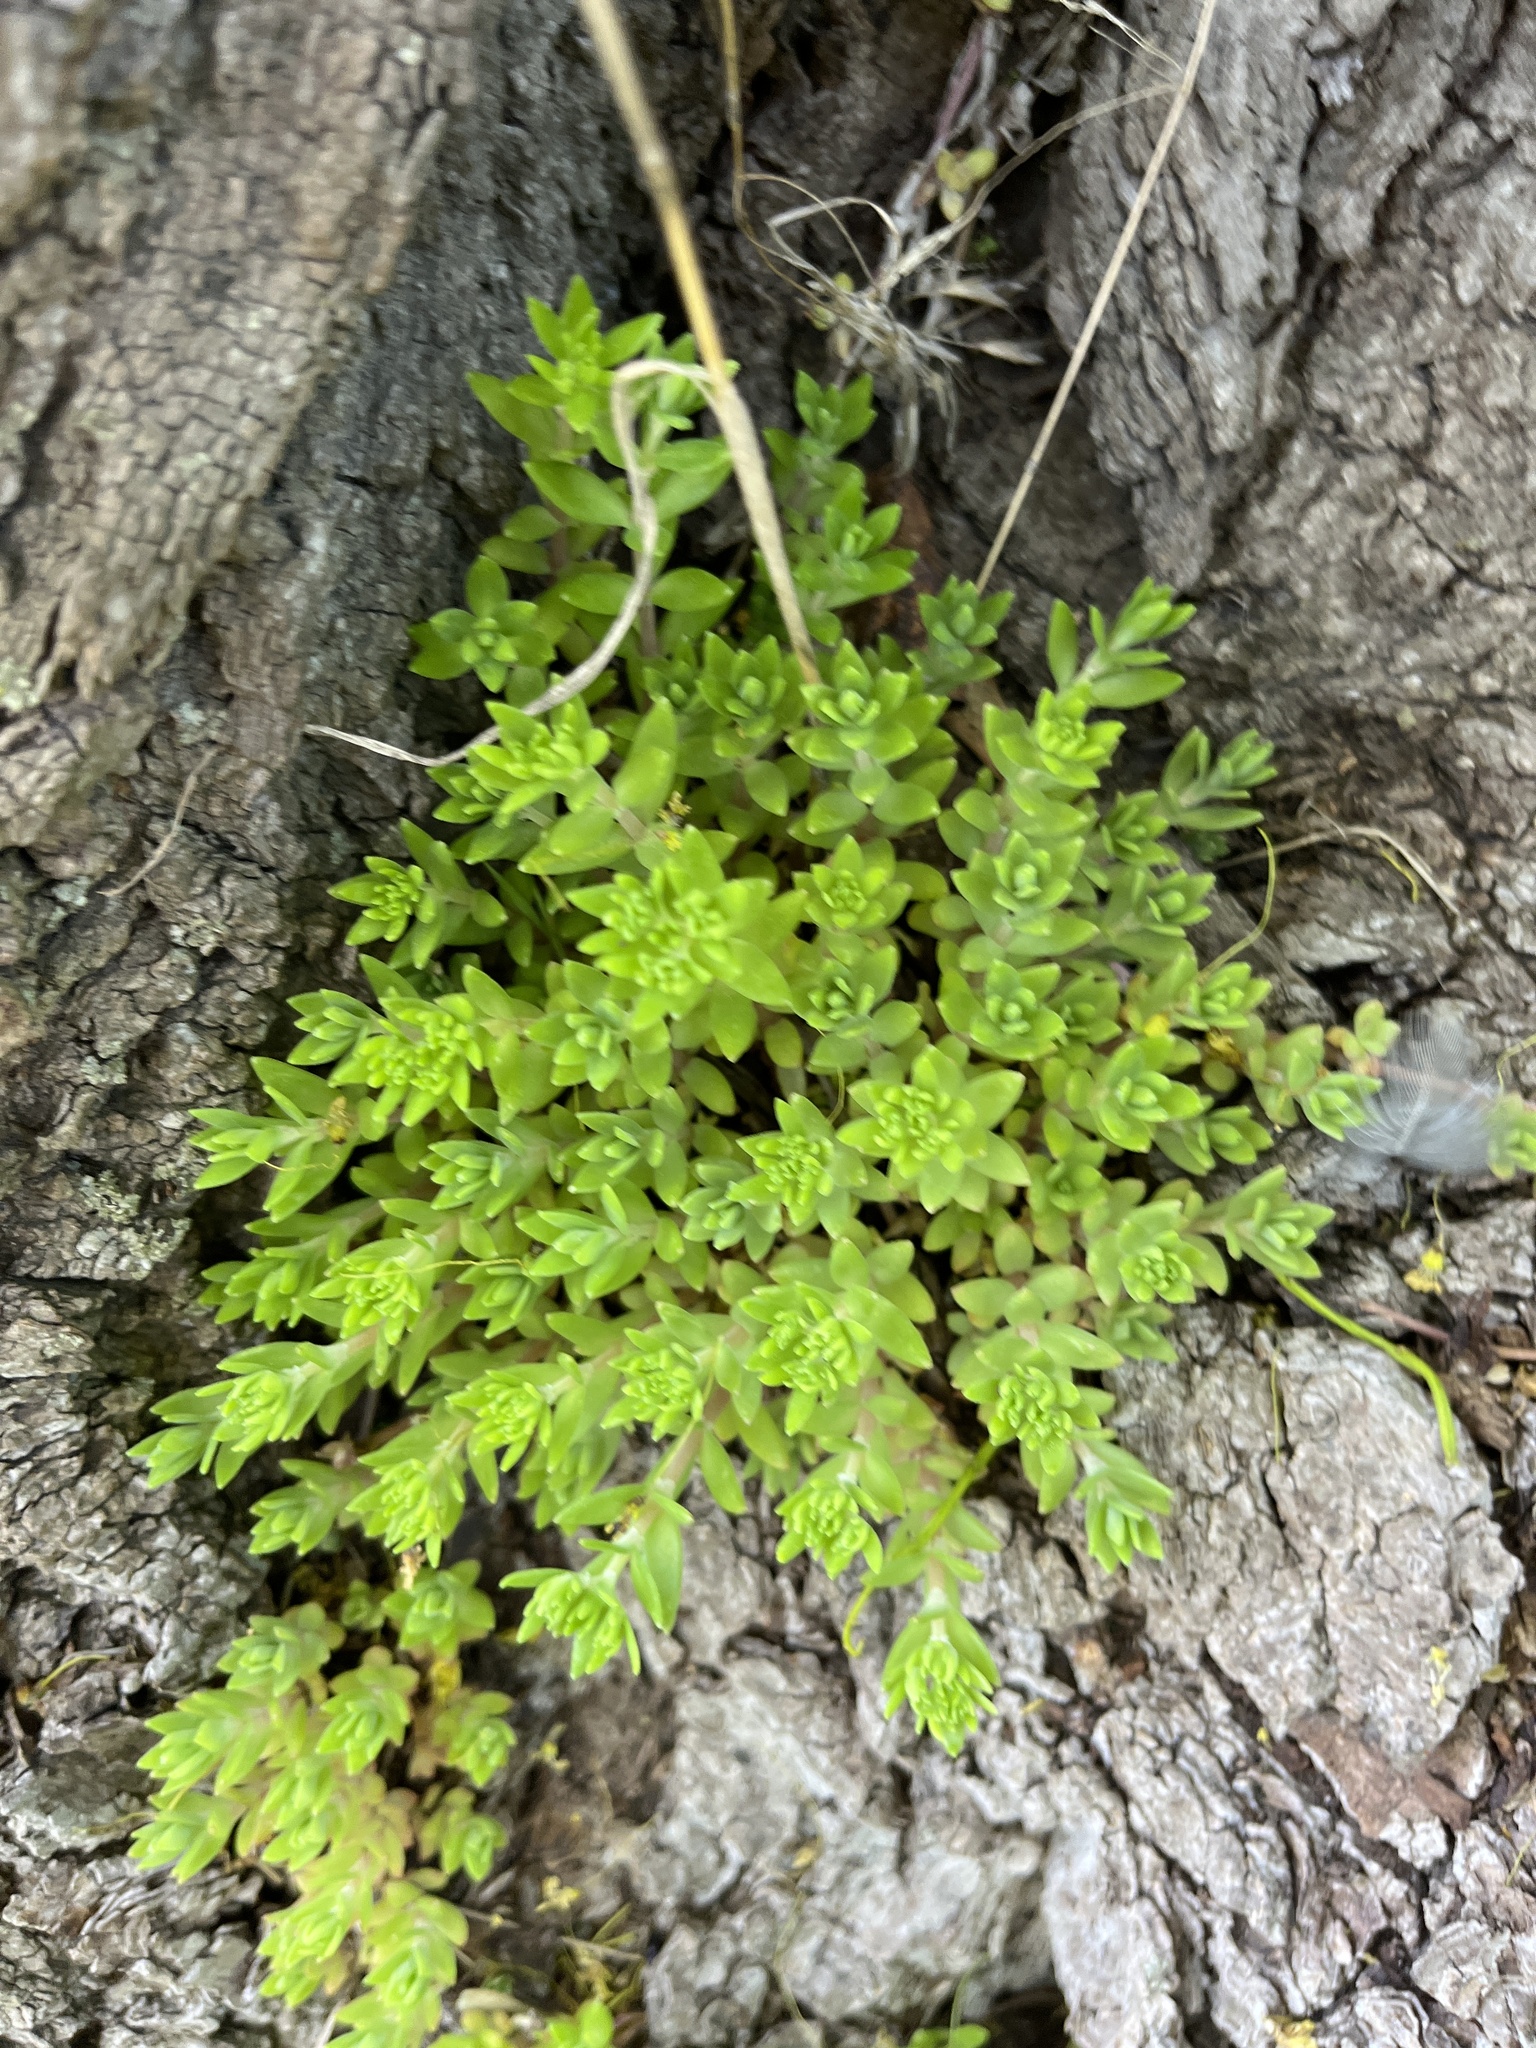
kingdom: Plantae
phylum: Tracheophyta
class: Magnoliopsida
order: Saxifragales
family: Crassulaceae
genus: Sedum
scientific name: Sedum sarmentosum
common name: Stringy stonecrop
